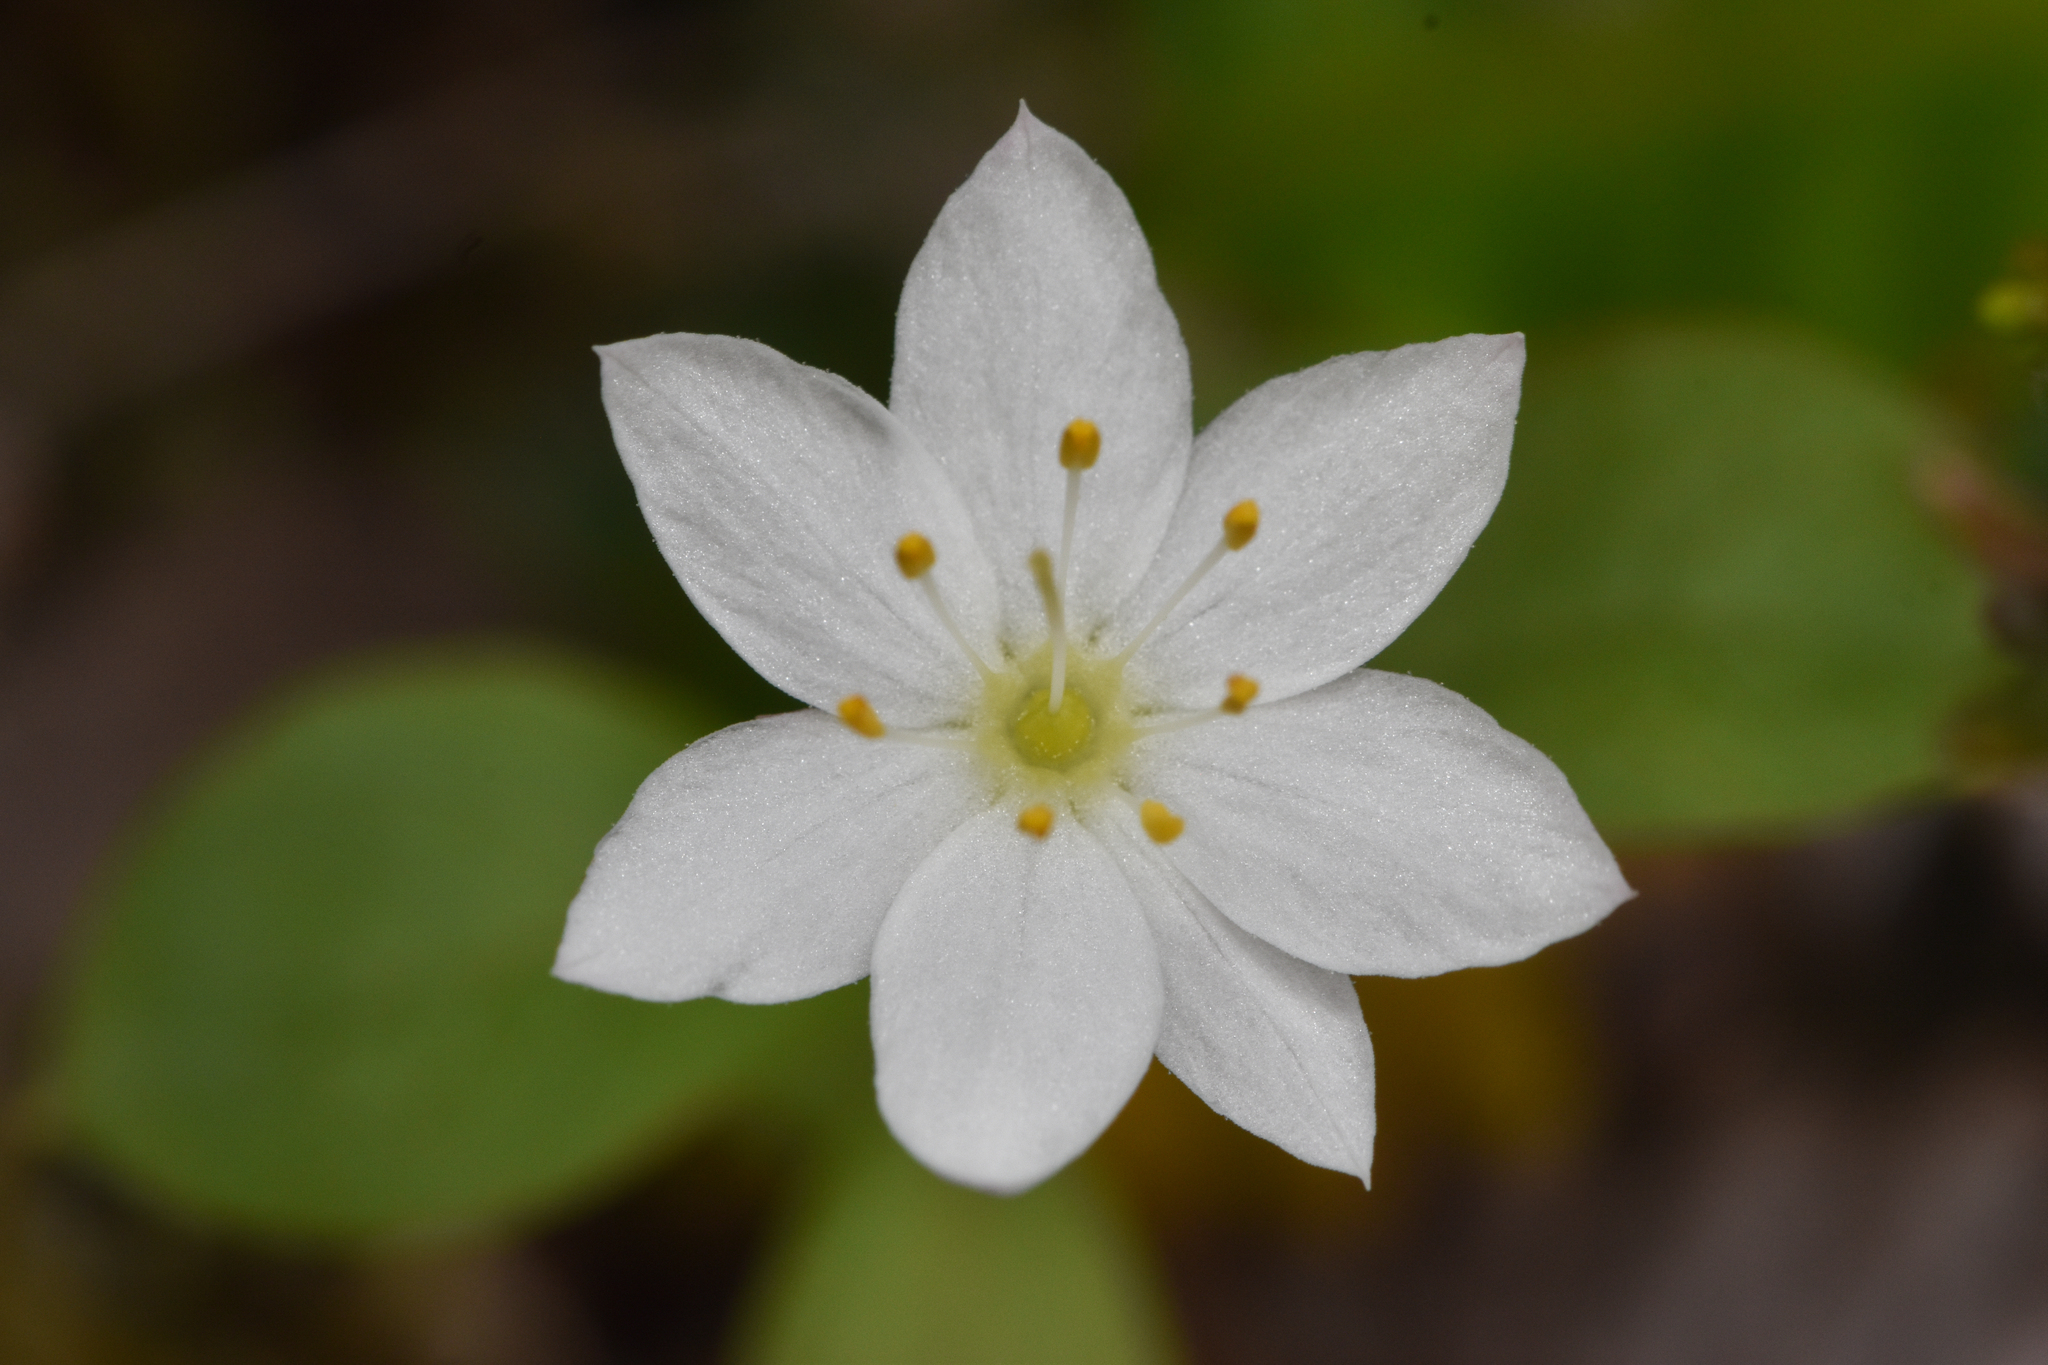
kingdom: Plantae
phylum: Tracheophyta
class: Magnoliopsida
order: Ericales
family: Primulaceae
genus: Lysimachia
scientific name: Lysimachia europaea
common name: Arctic starflower
